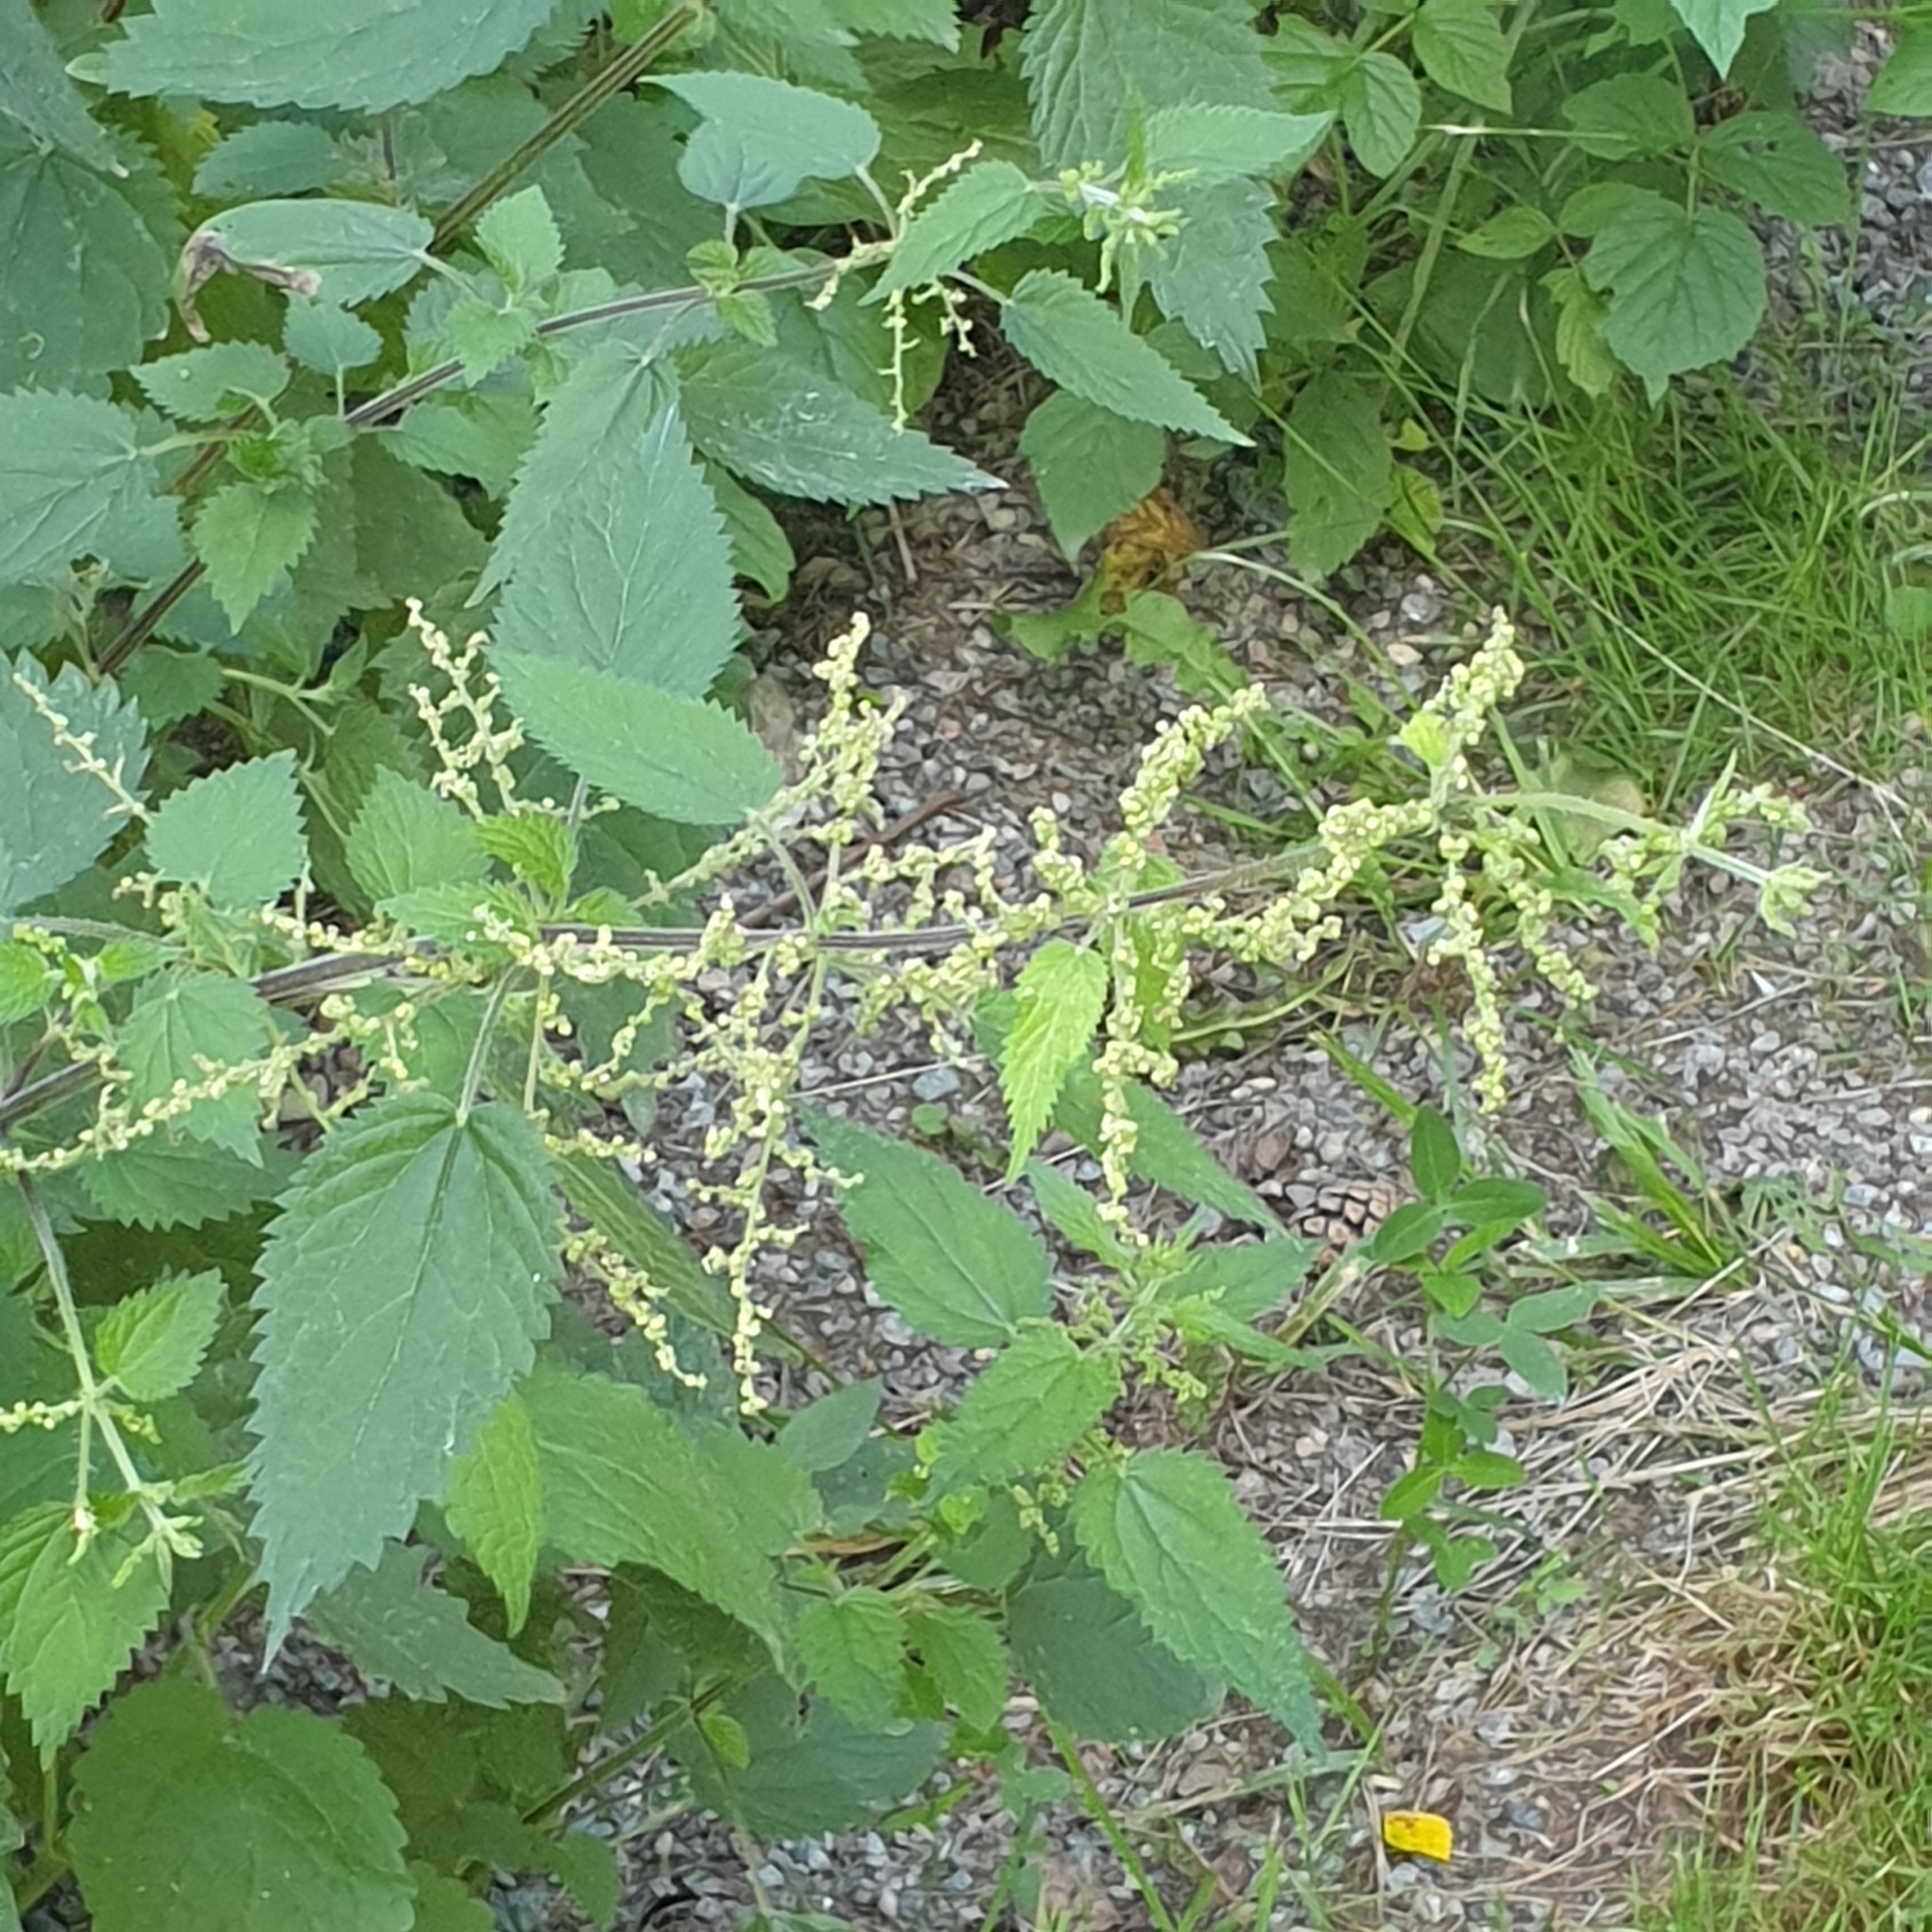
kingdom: Plantae
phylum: Tracheophyta
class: Magnoliopsida
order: Rosales
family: Urticaceae
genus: Urtica
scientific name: Urtica dioica
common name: Common nettle
